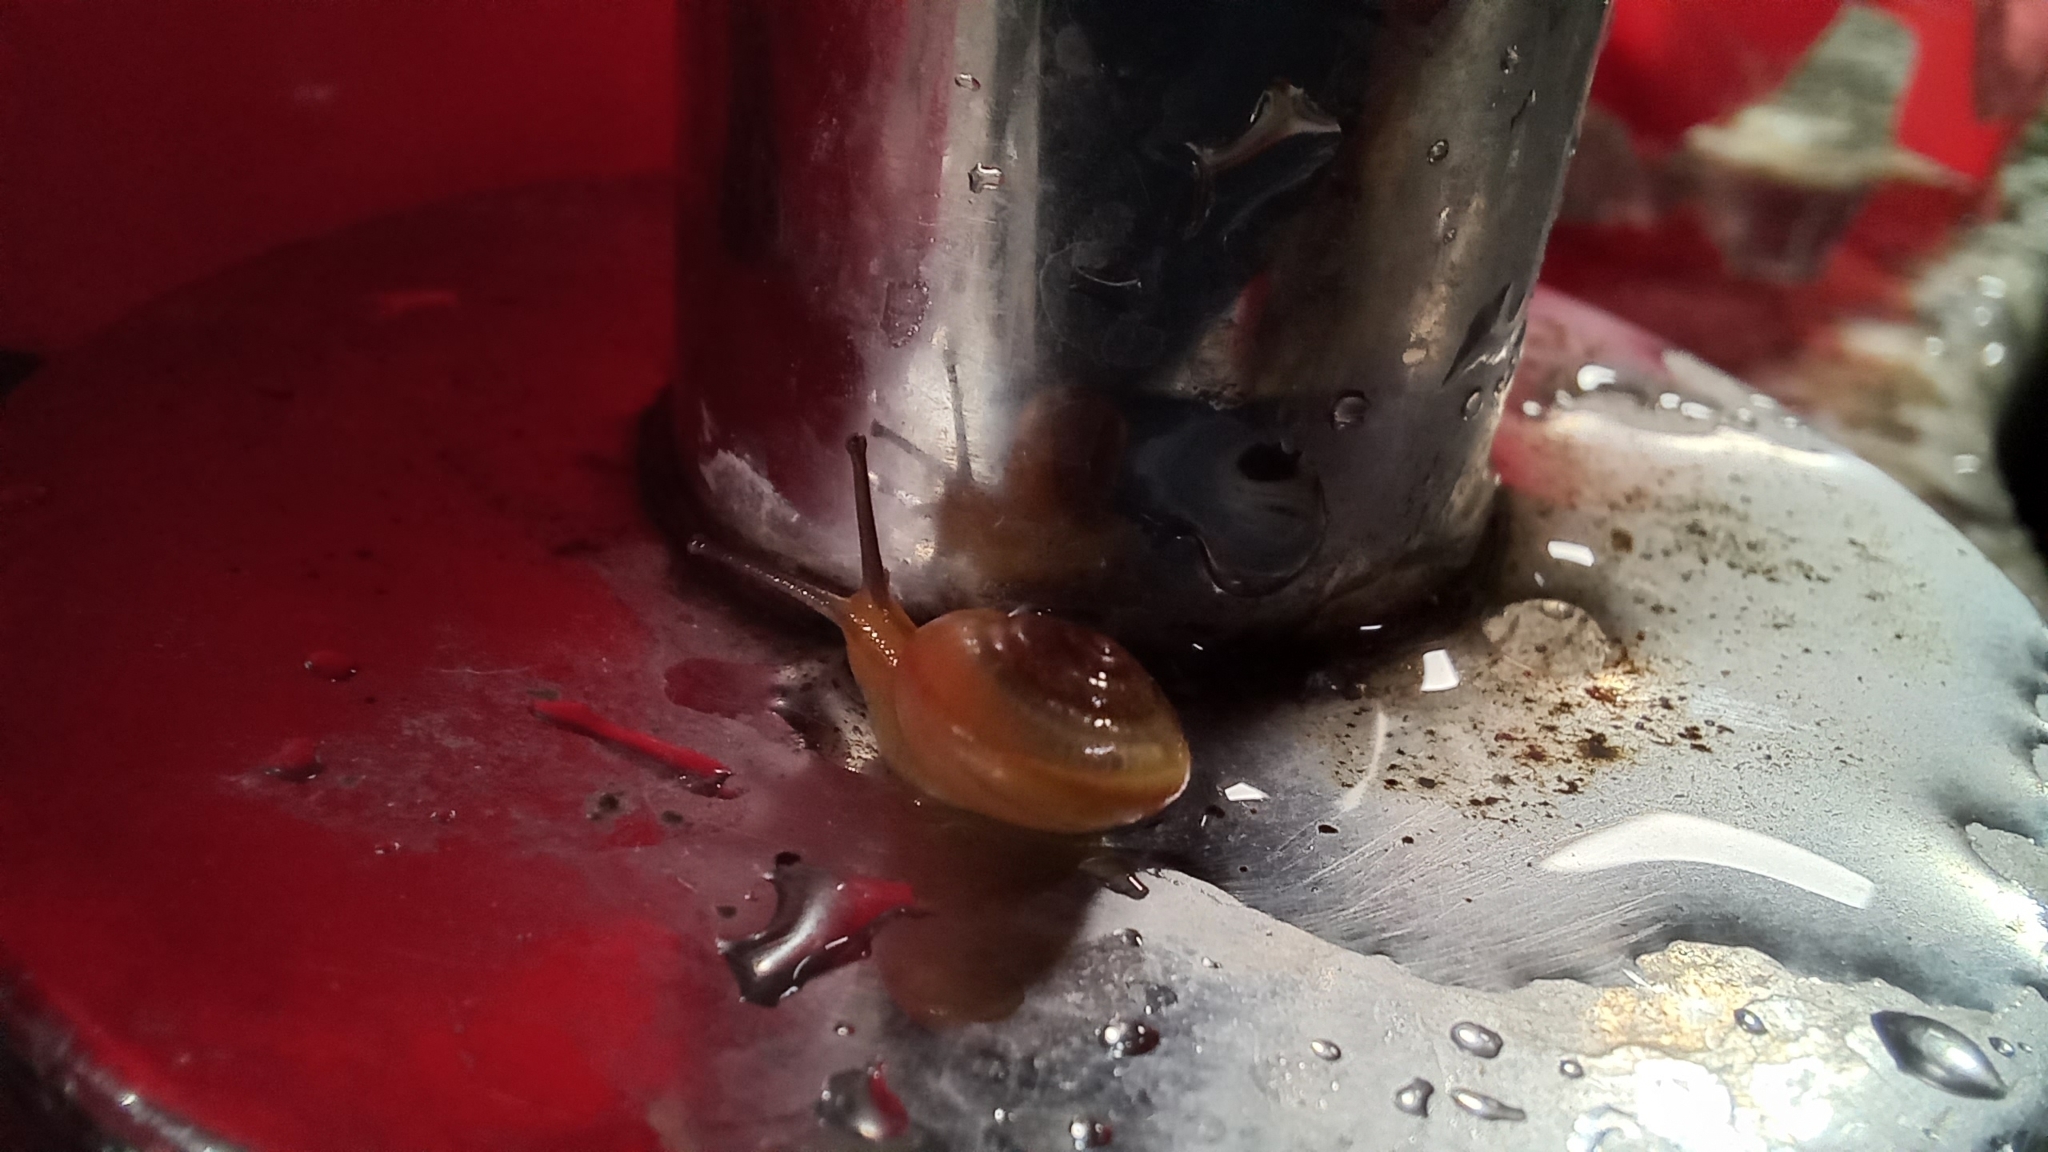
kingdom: Animalia
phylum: Mollusca
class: Gastropoda
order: Stylommatophora
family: Camaenidae
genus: Bradybaena
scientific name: Bradybaena similaris
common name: Asian trampsnail
